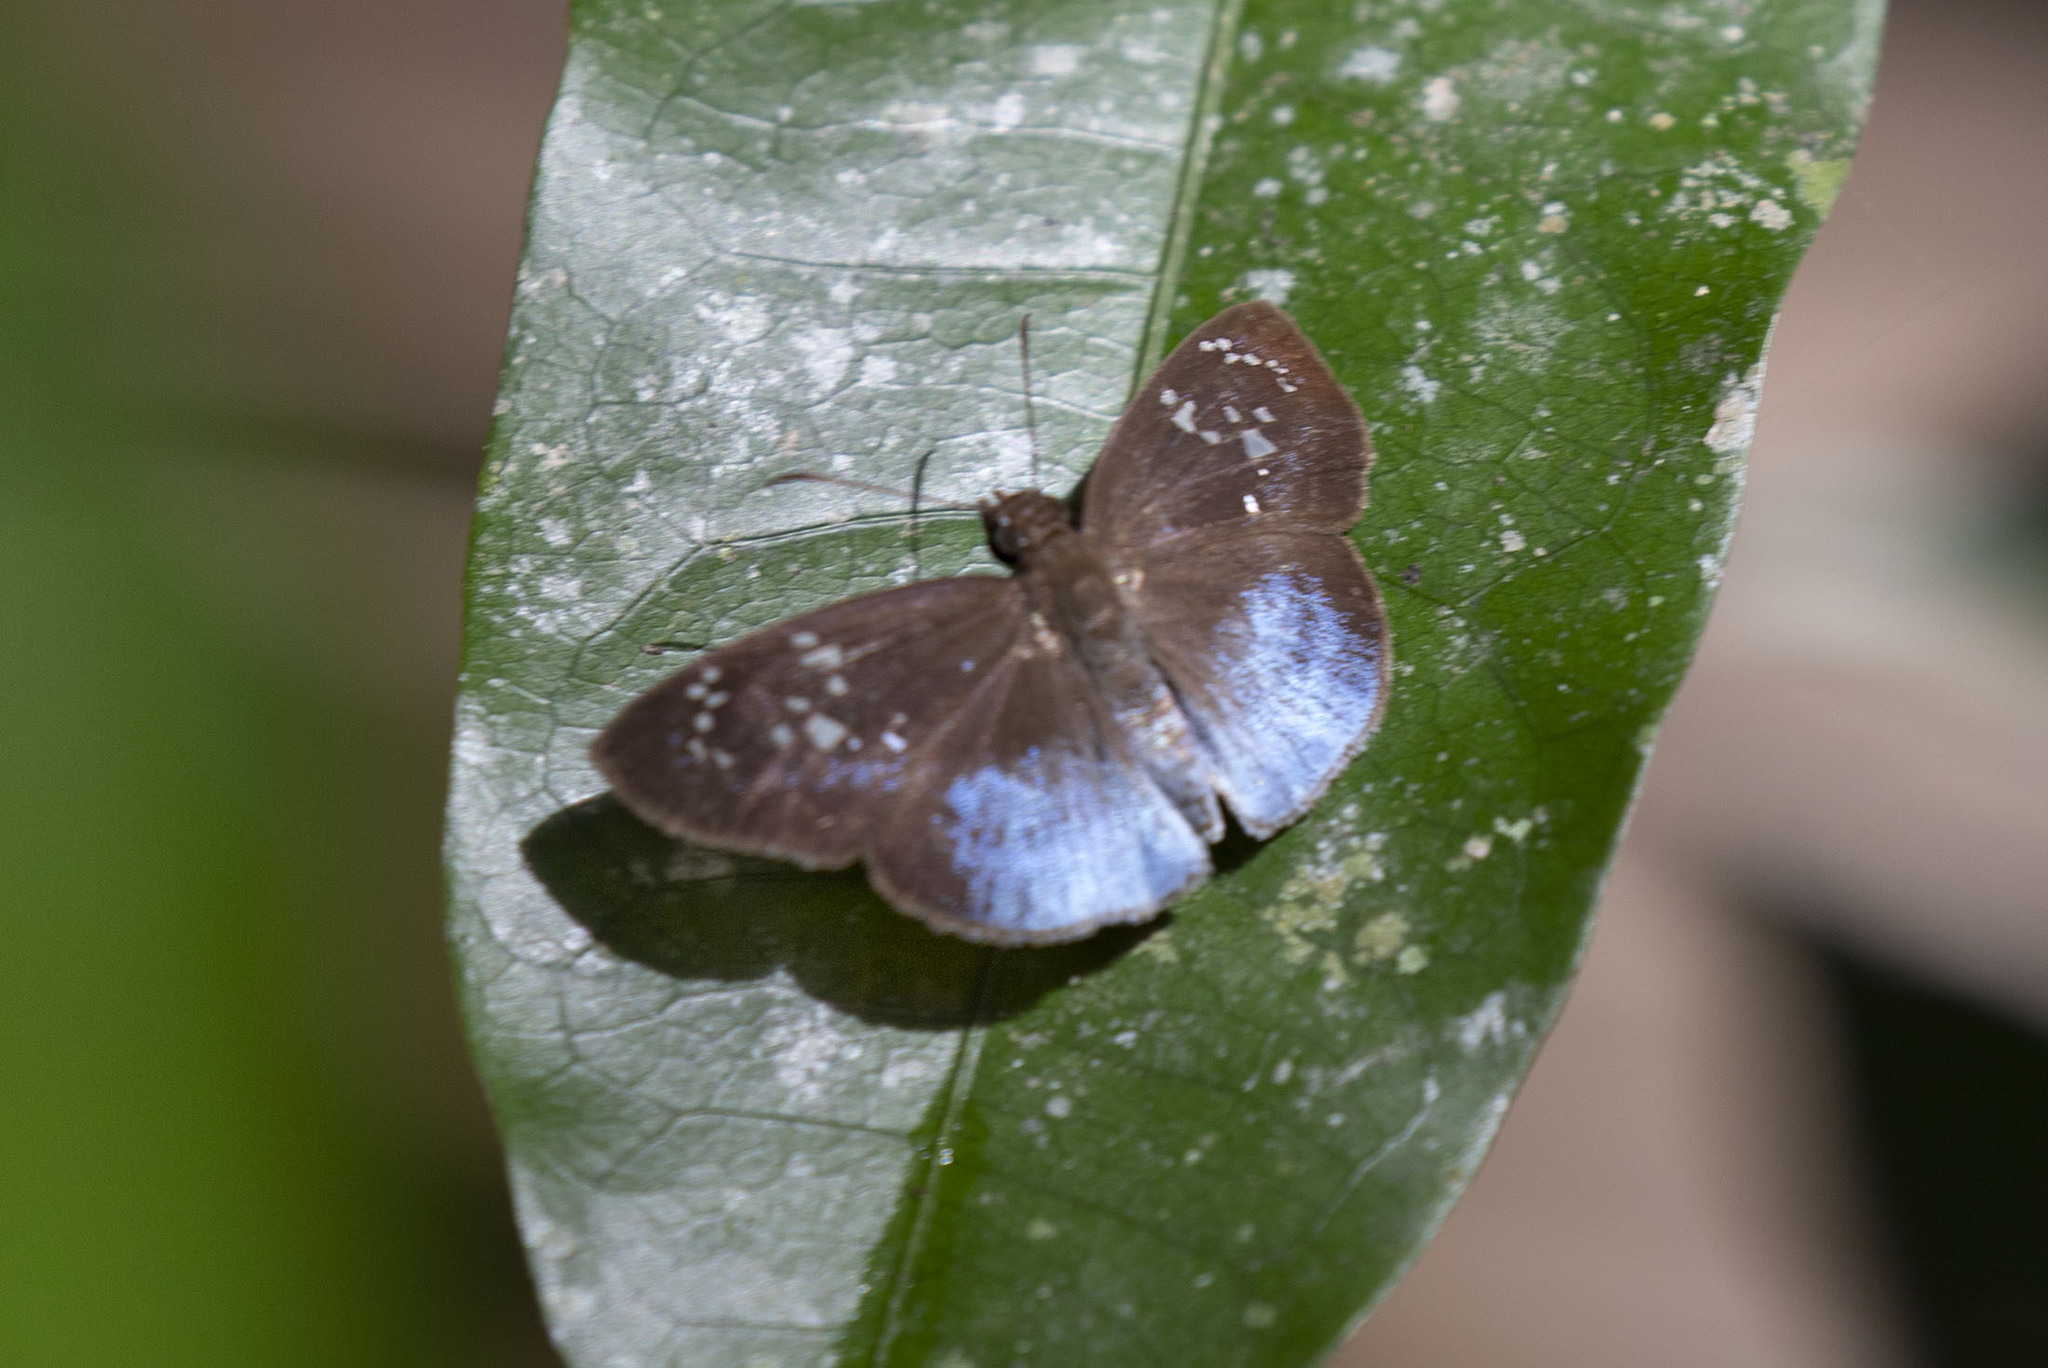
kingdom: Animalia
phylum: Arthropoda
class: Insecta
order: Lepidoptera
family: Hesperiidae
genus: Livida
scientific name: Livida
